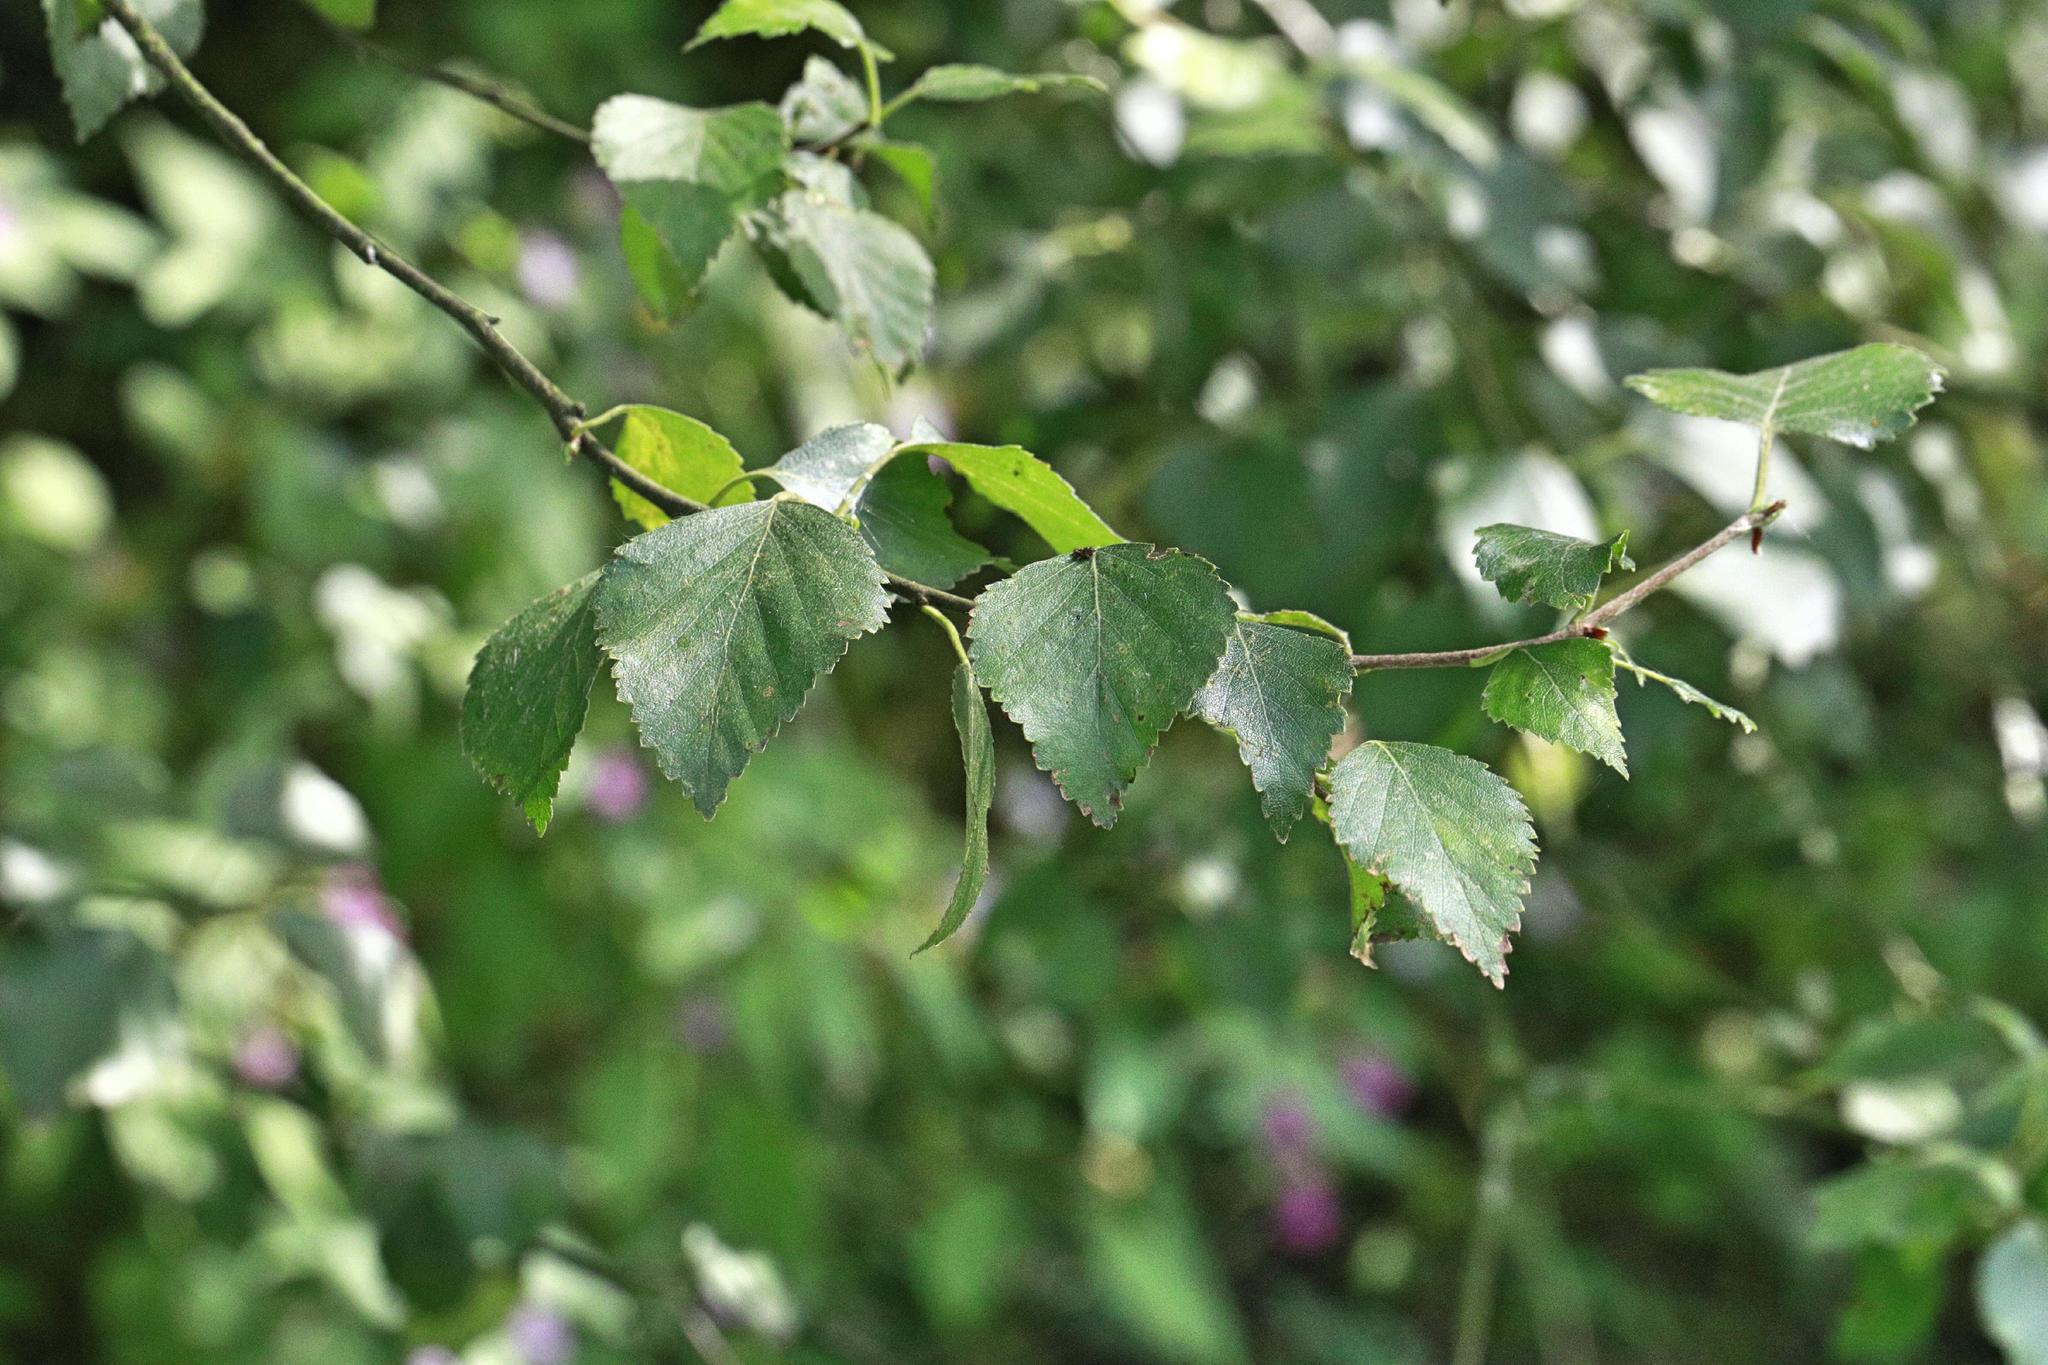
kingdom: Plantae
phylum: Tracheophyta
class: Magnoliopsida
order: Fagales
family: Betulaceae
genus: Betula
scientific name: Betula pendula
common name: Silver birch
